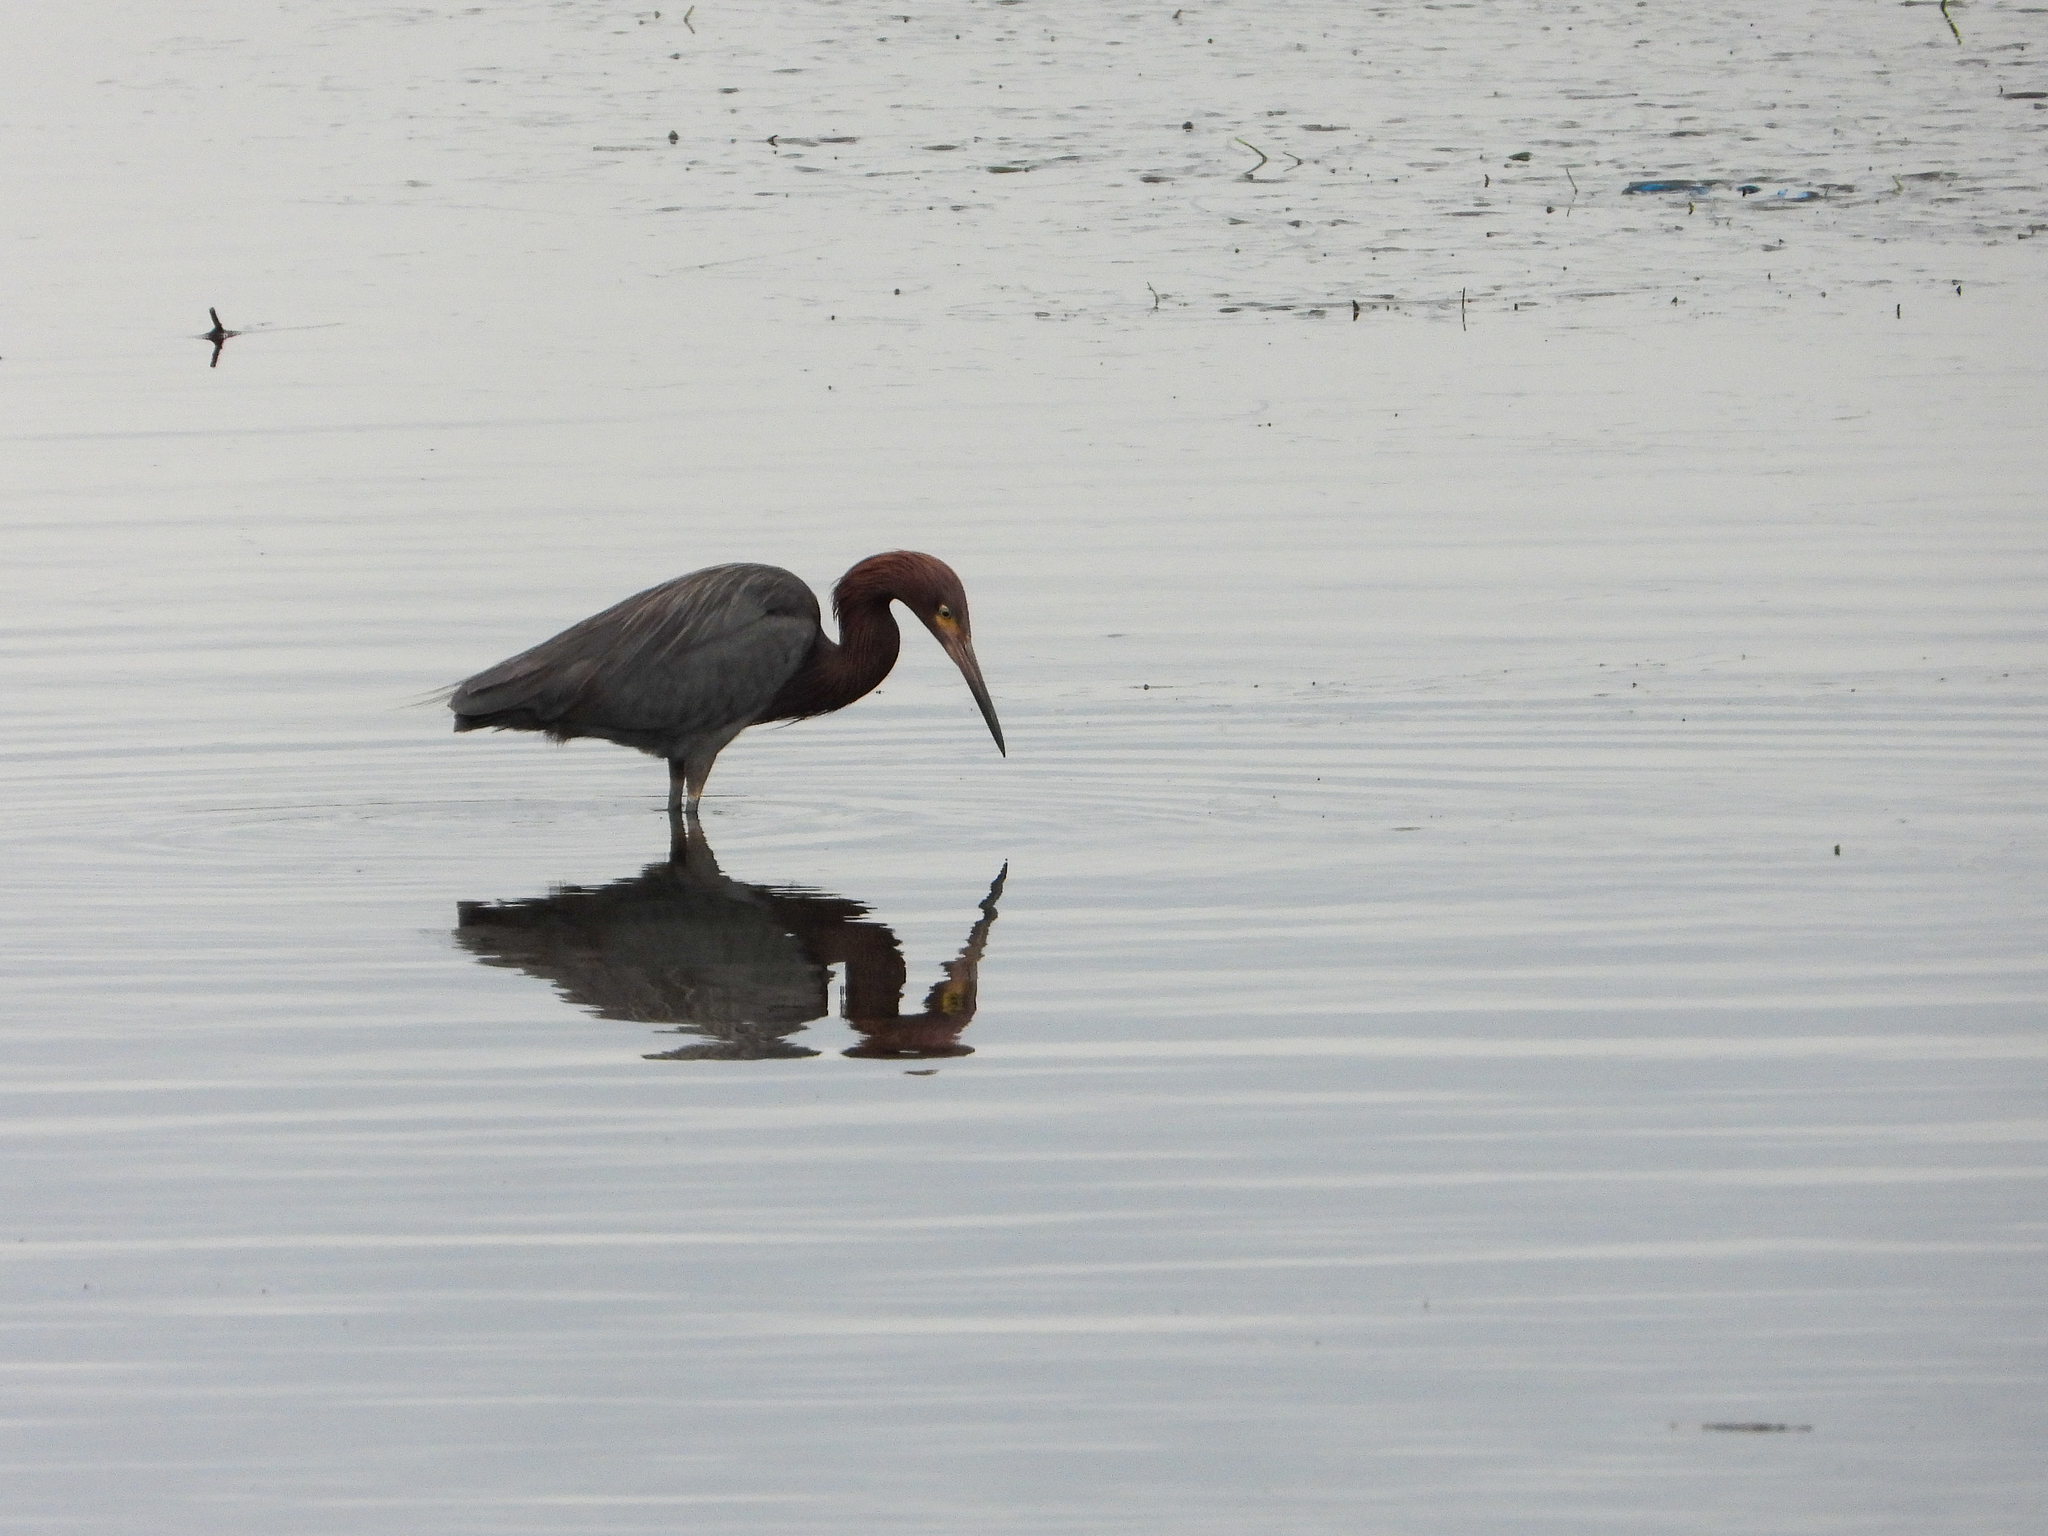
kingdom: Animalia
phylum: Chordata
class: Aves
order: Pelecaniformes
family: Ardeidae
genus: Egretta
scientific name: Egretta rufescens
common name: Reddish egret
